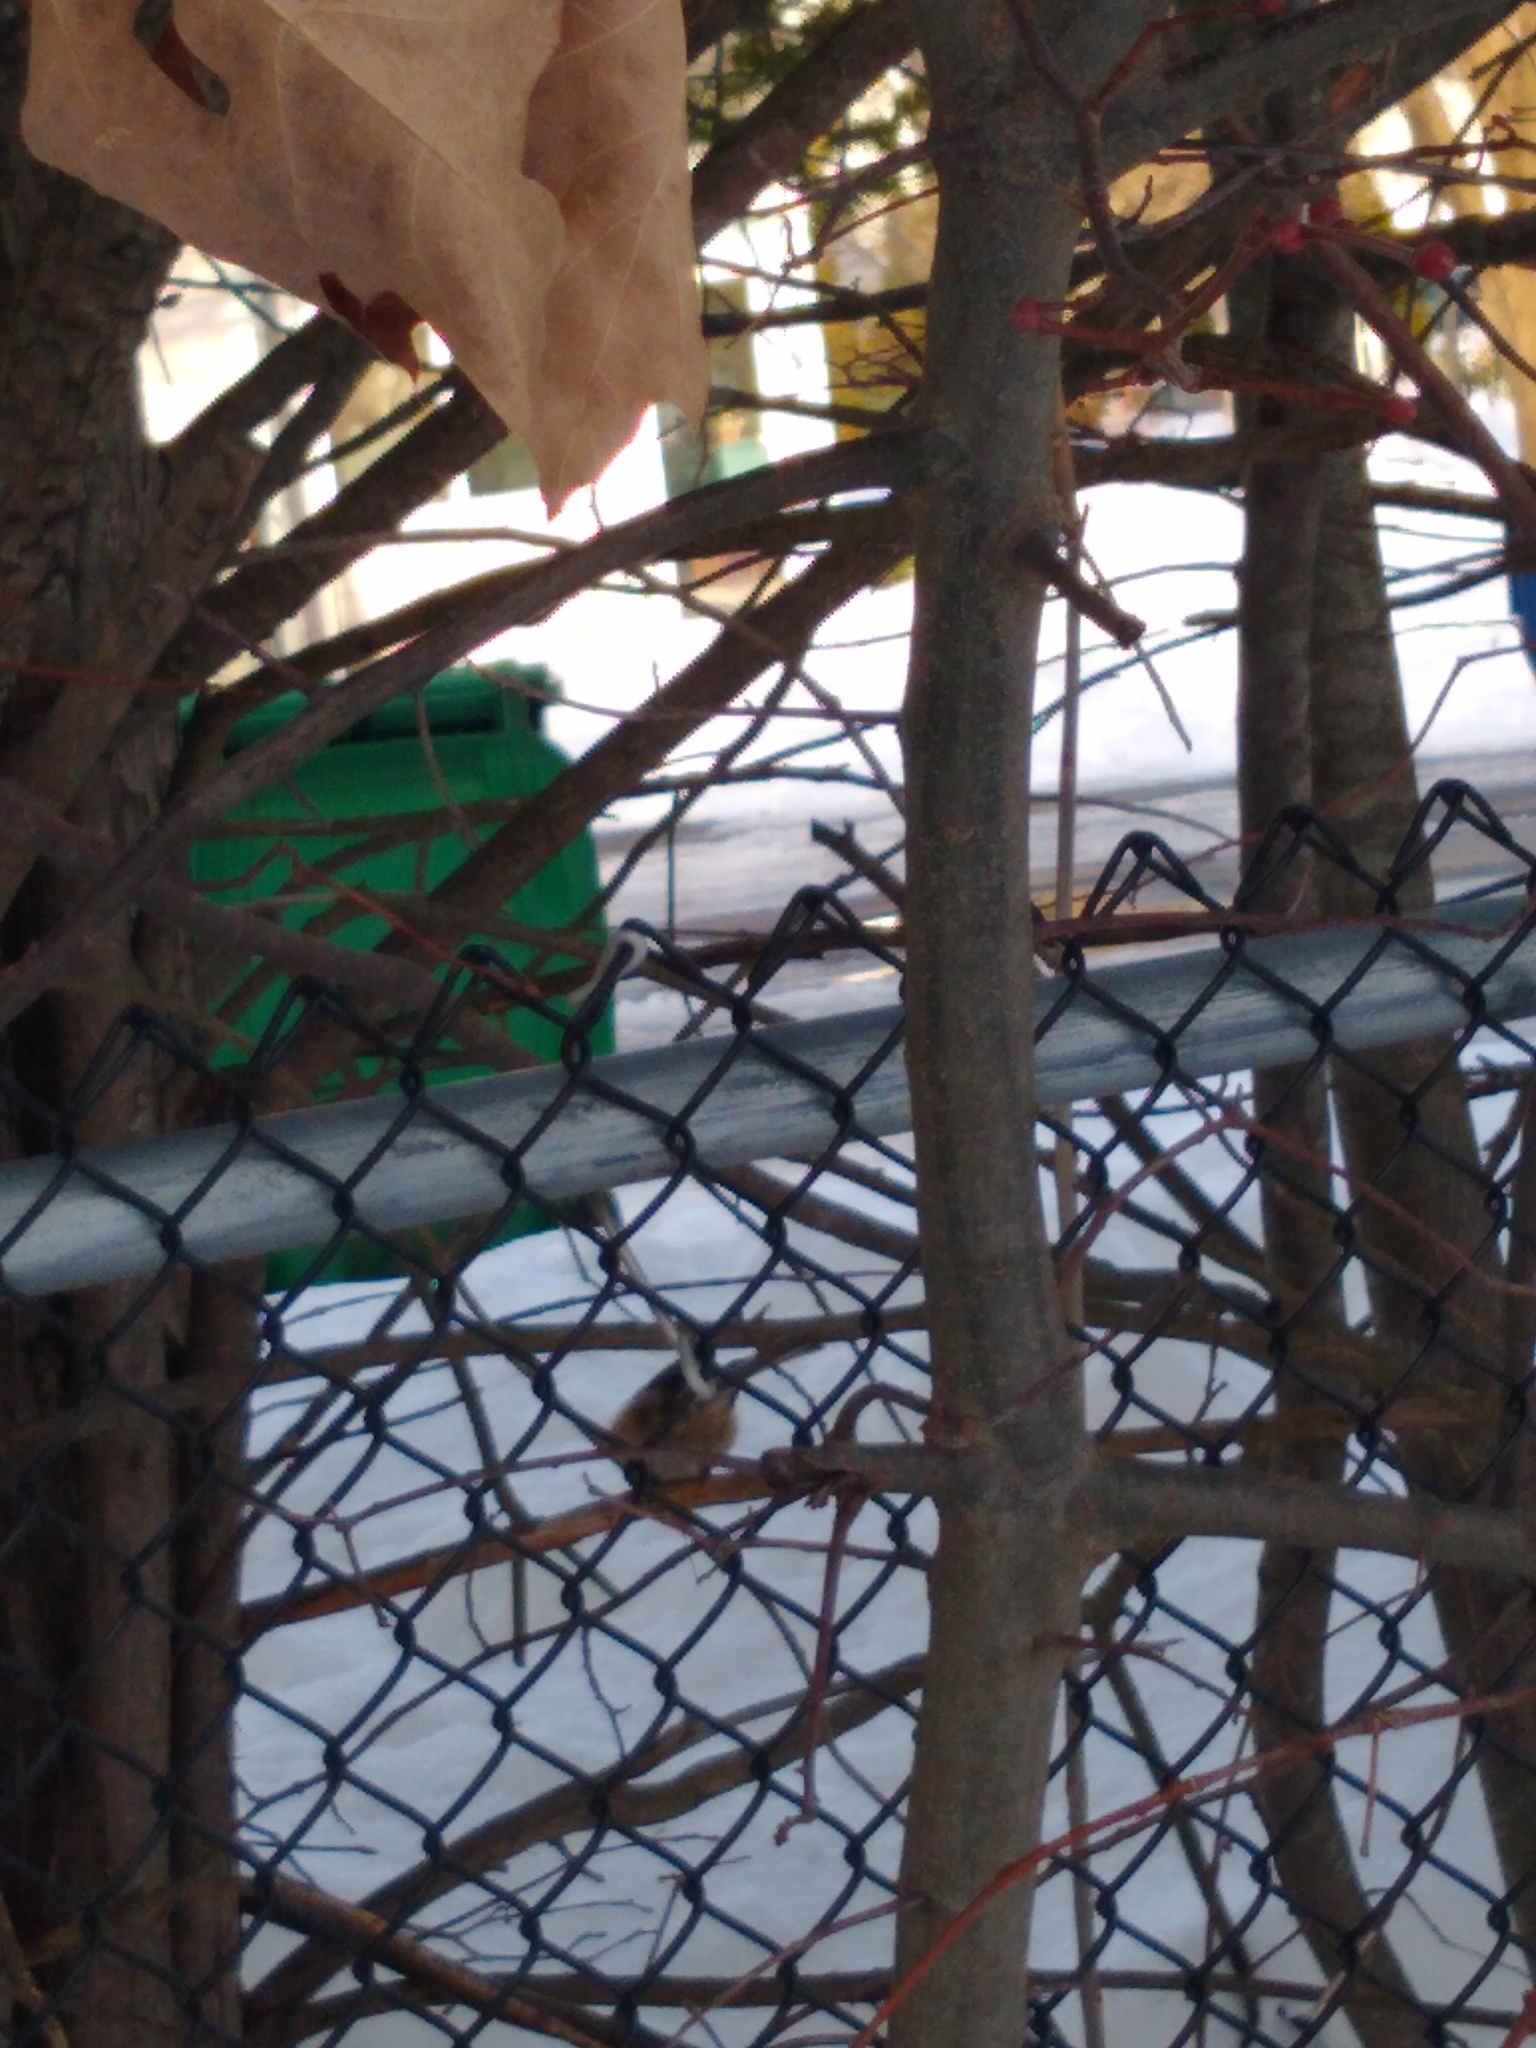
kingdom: Animalia
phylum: Chordata
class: Aves
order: Passeriformes
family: Paridae
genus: Poecile
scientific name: Poecile atricapillus
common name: Black-capped chickadee
